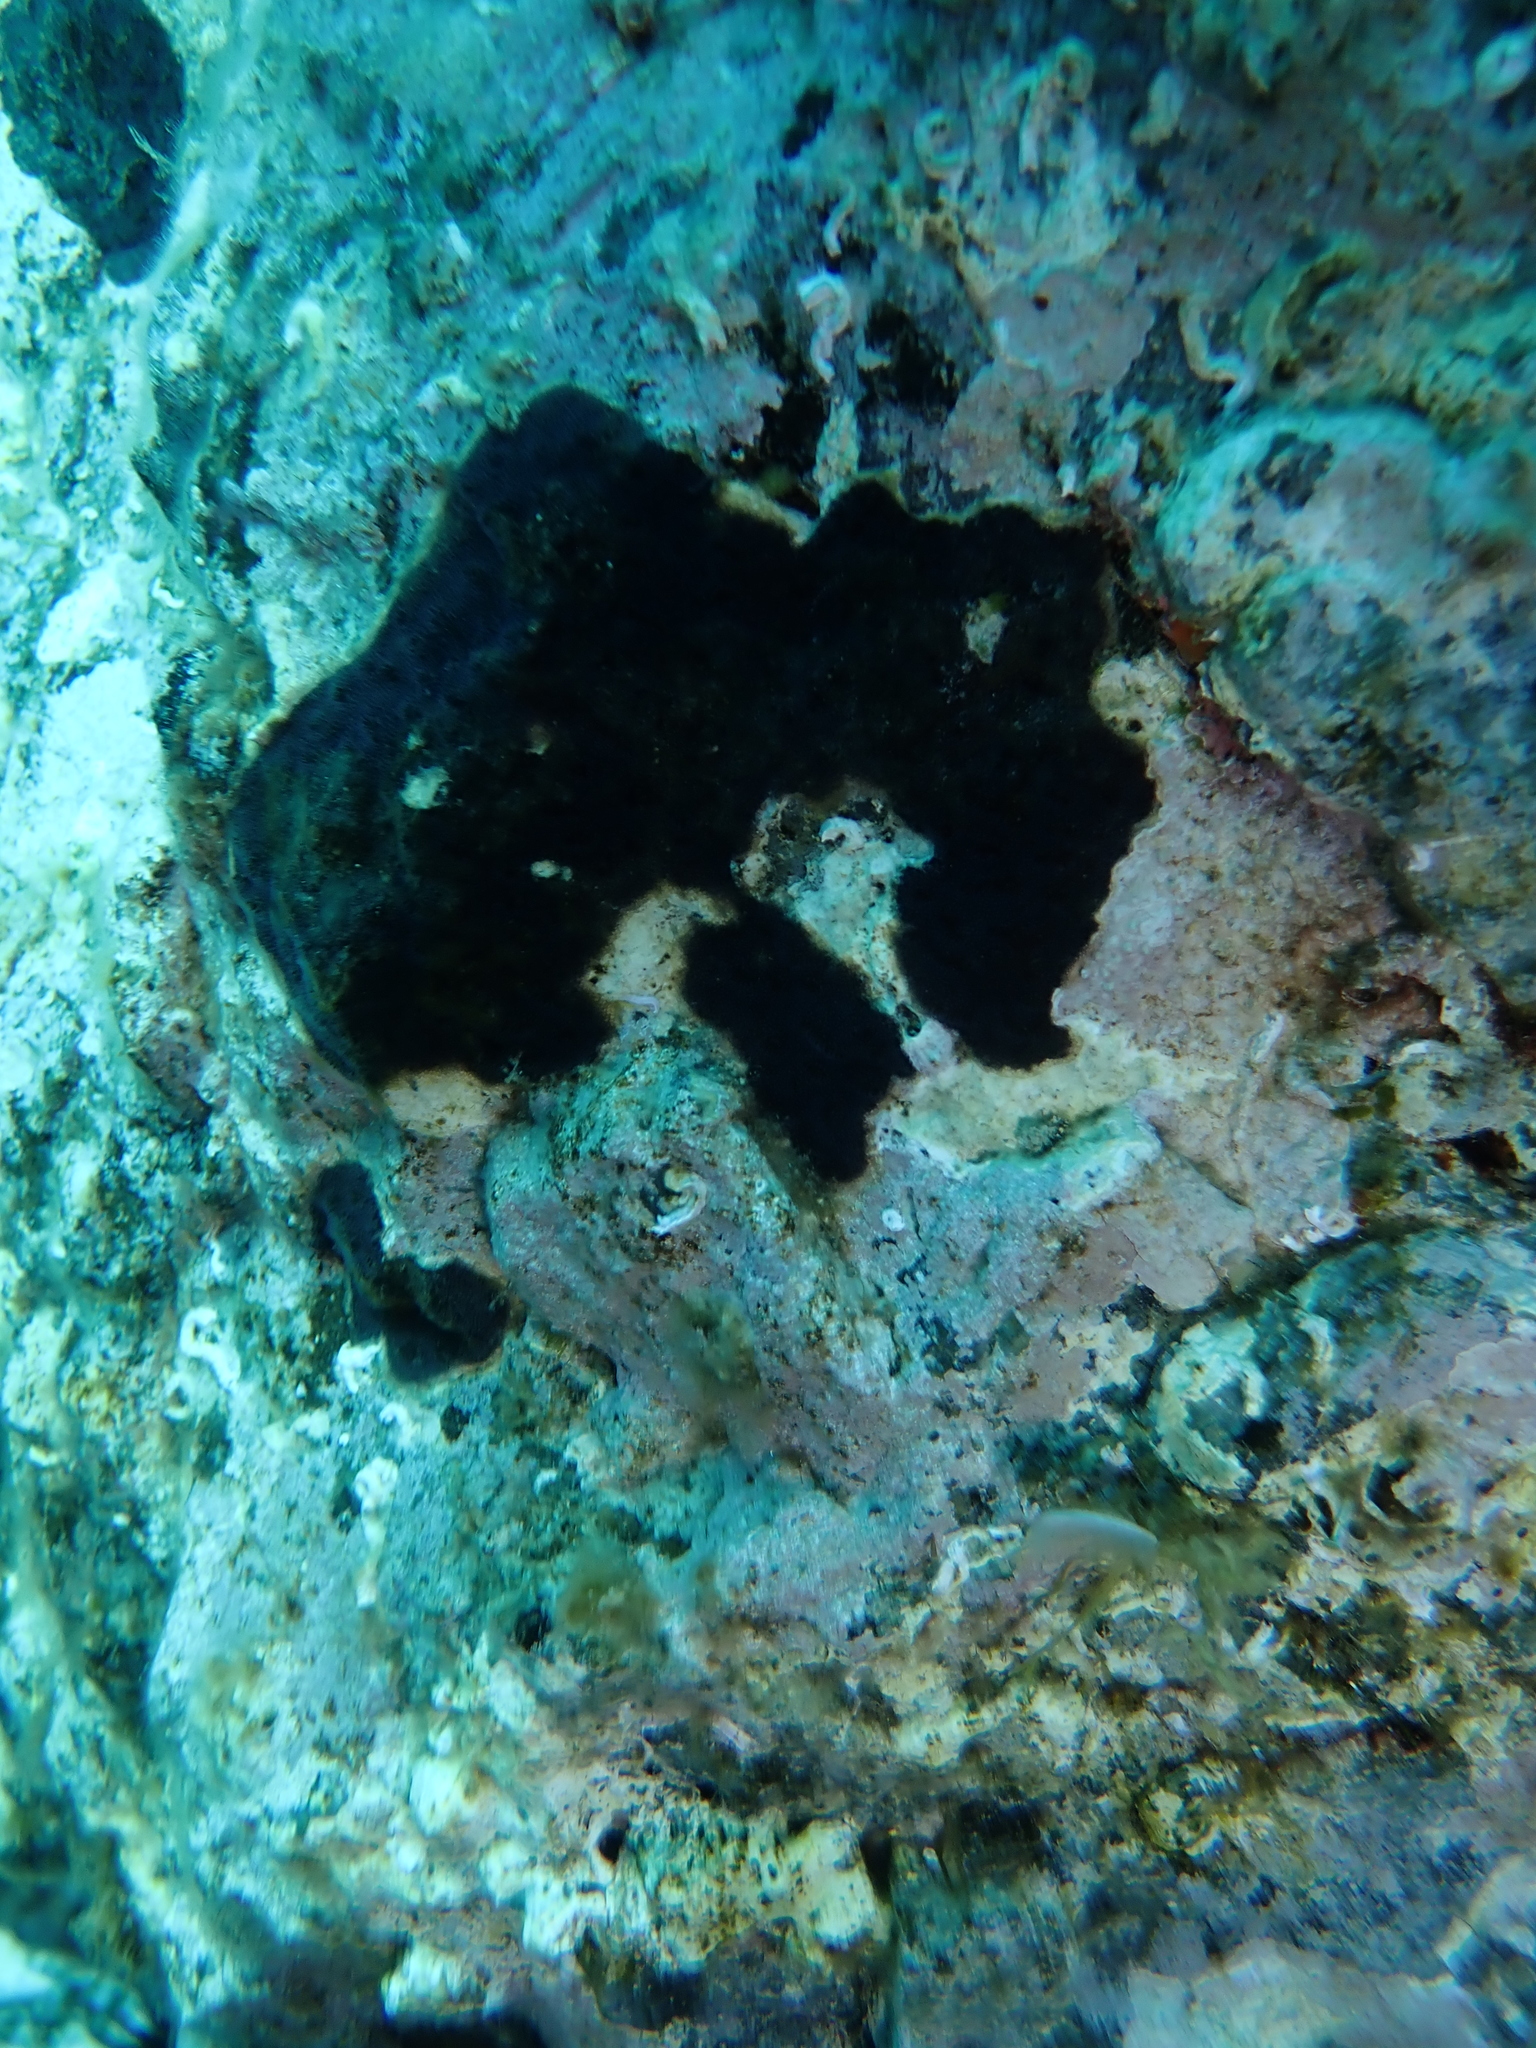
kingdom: Animalia
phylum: Bryozoa
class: Gymnolaemata
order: Cheilostomatida
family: Adeonidae
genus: Reptadeonella
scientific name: Reptadeonella violacea
